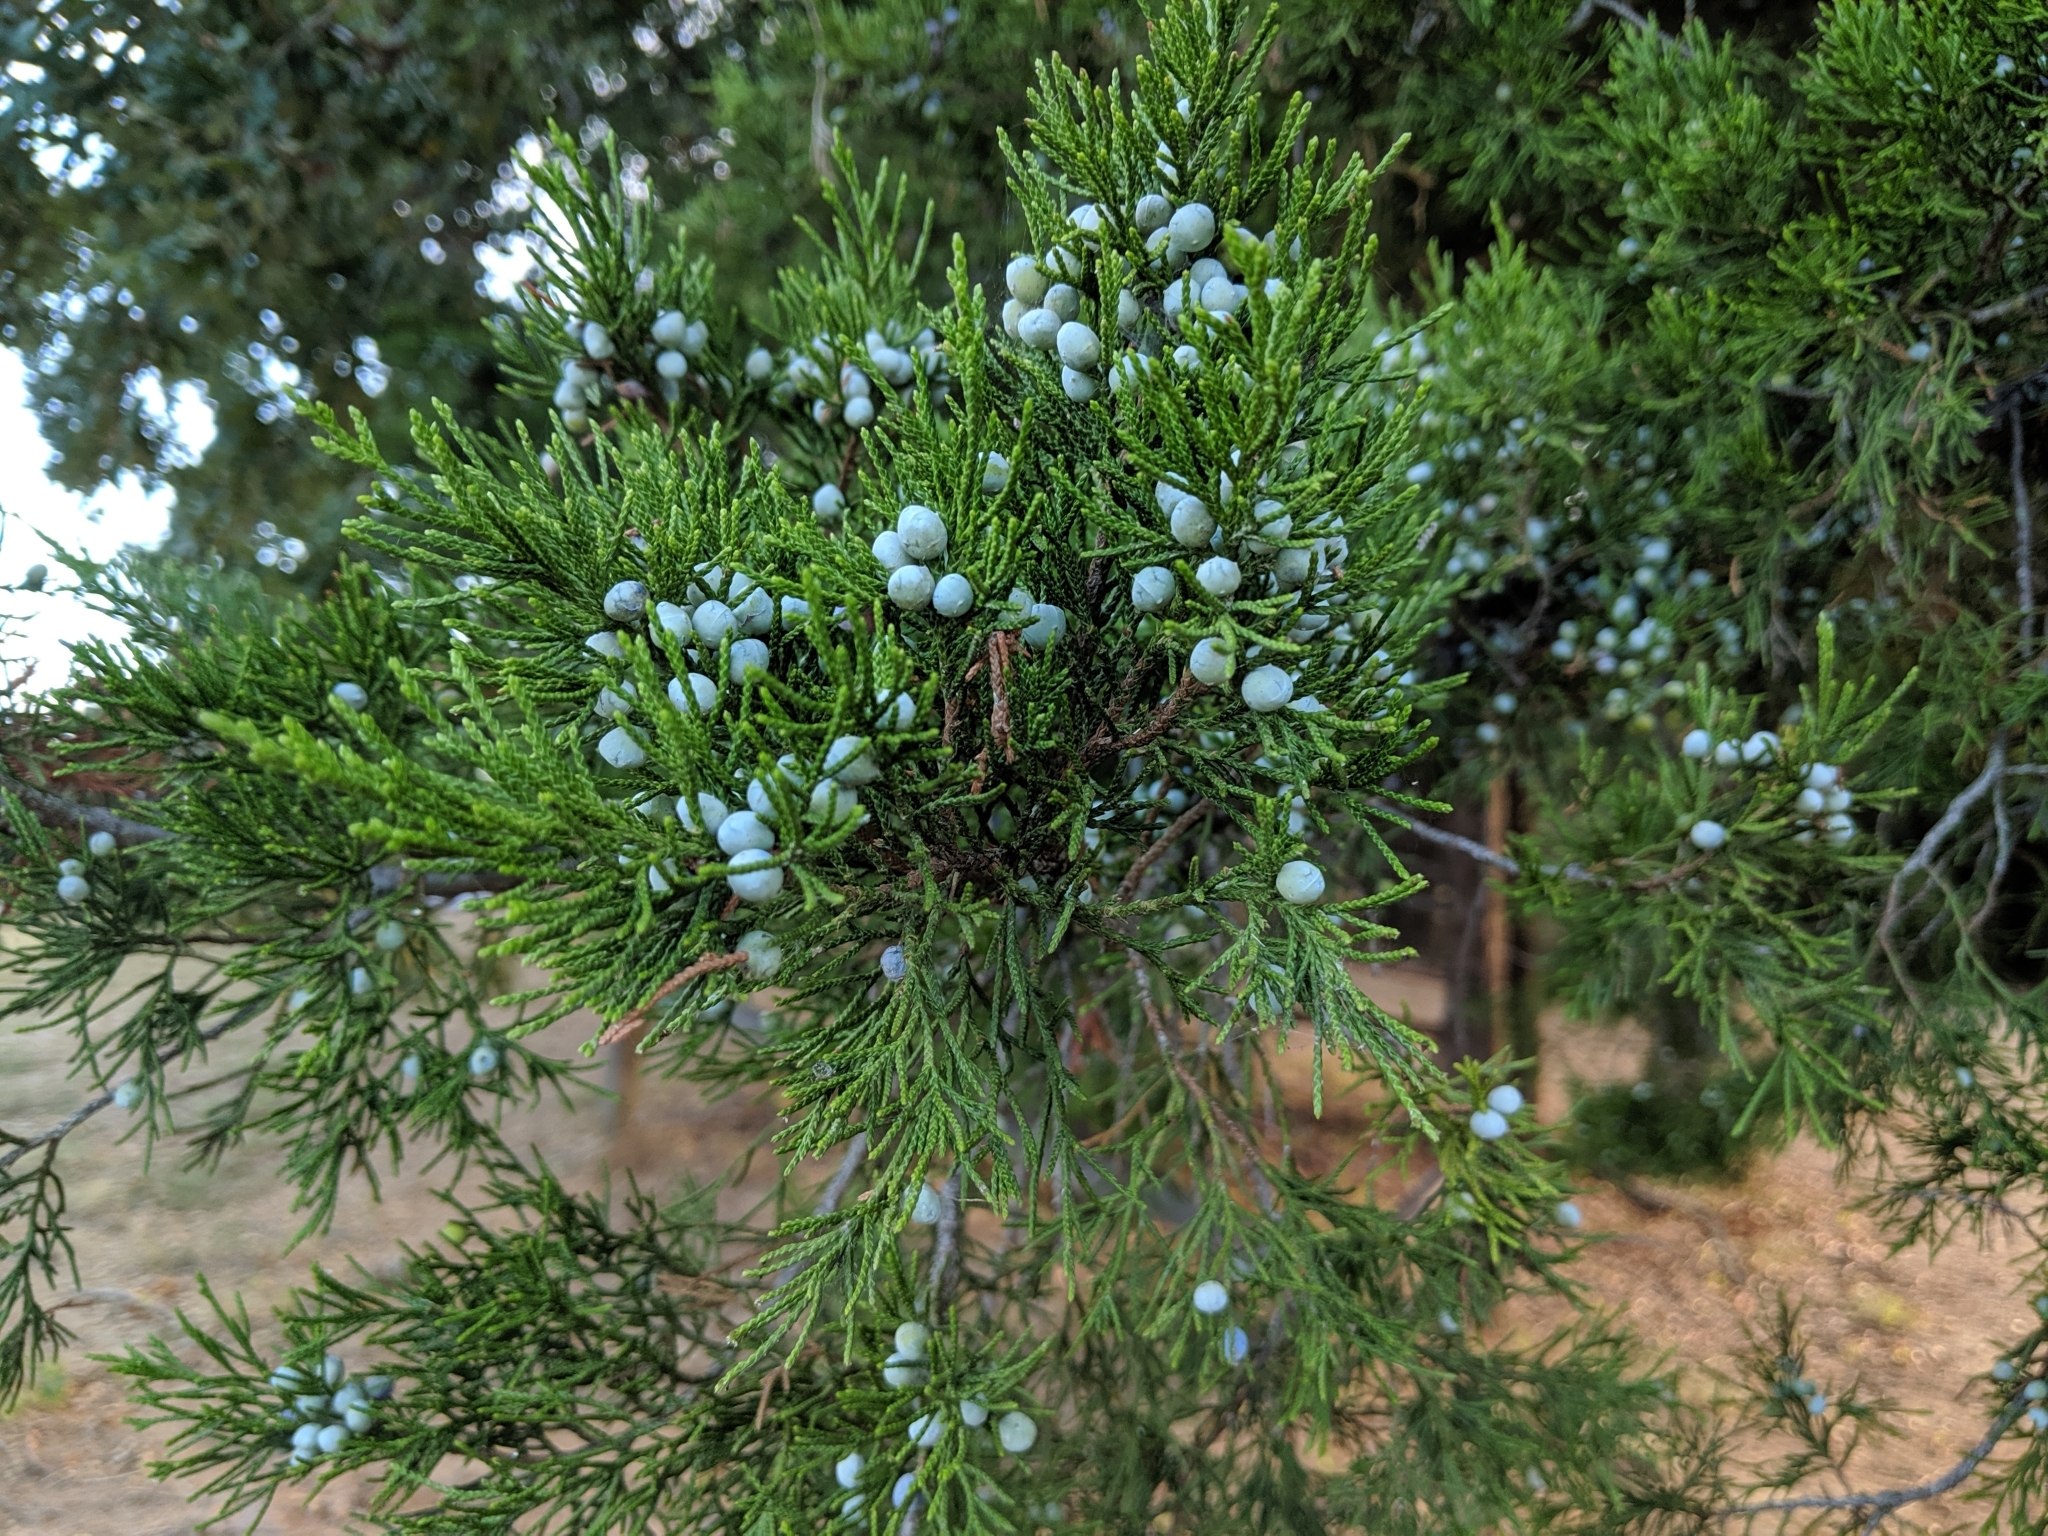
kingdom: Plantae
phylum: Tracheophyta
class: Pinopsida
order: Pinales
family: Cupressaceae
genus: Juniperus
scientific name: Juniperus virginiana
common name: Red juniper
